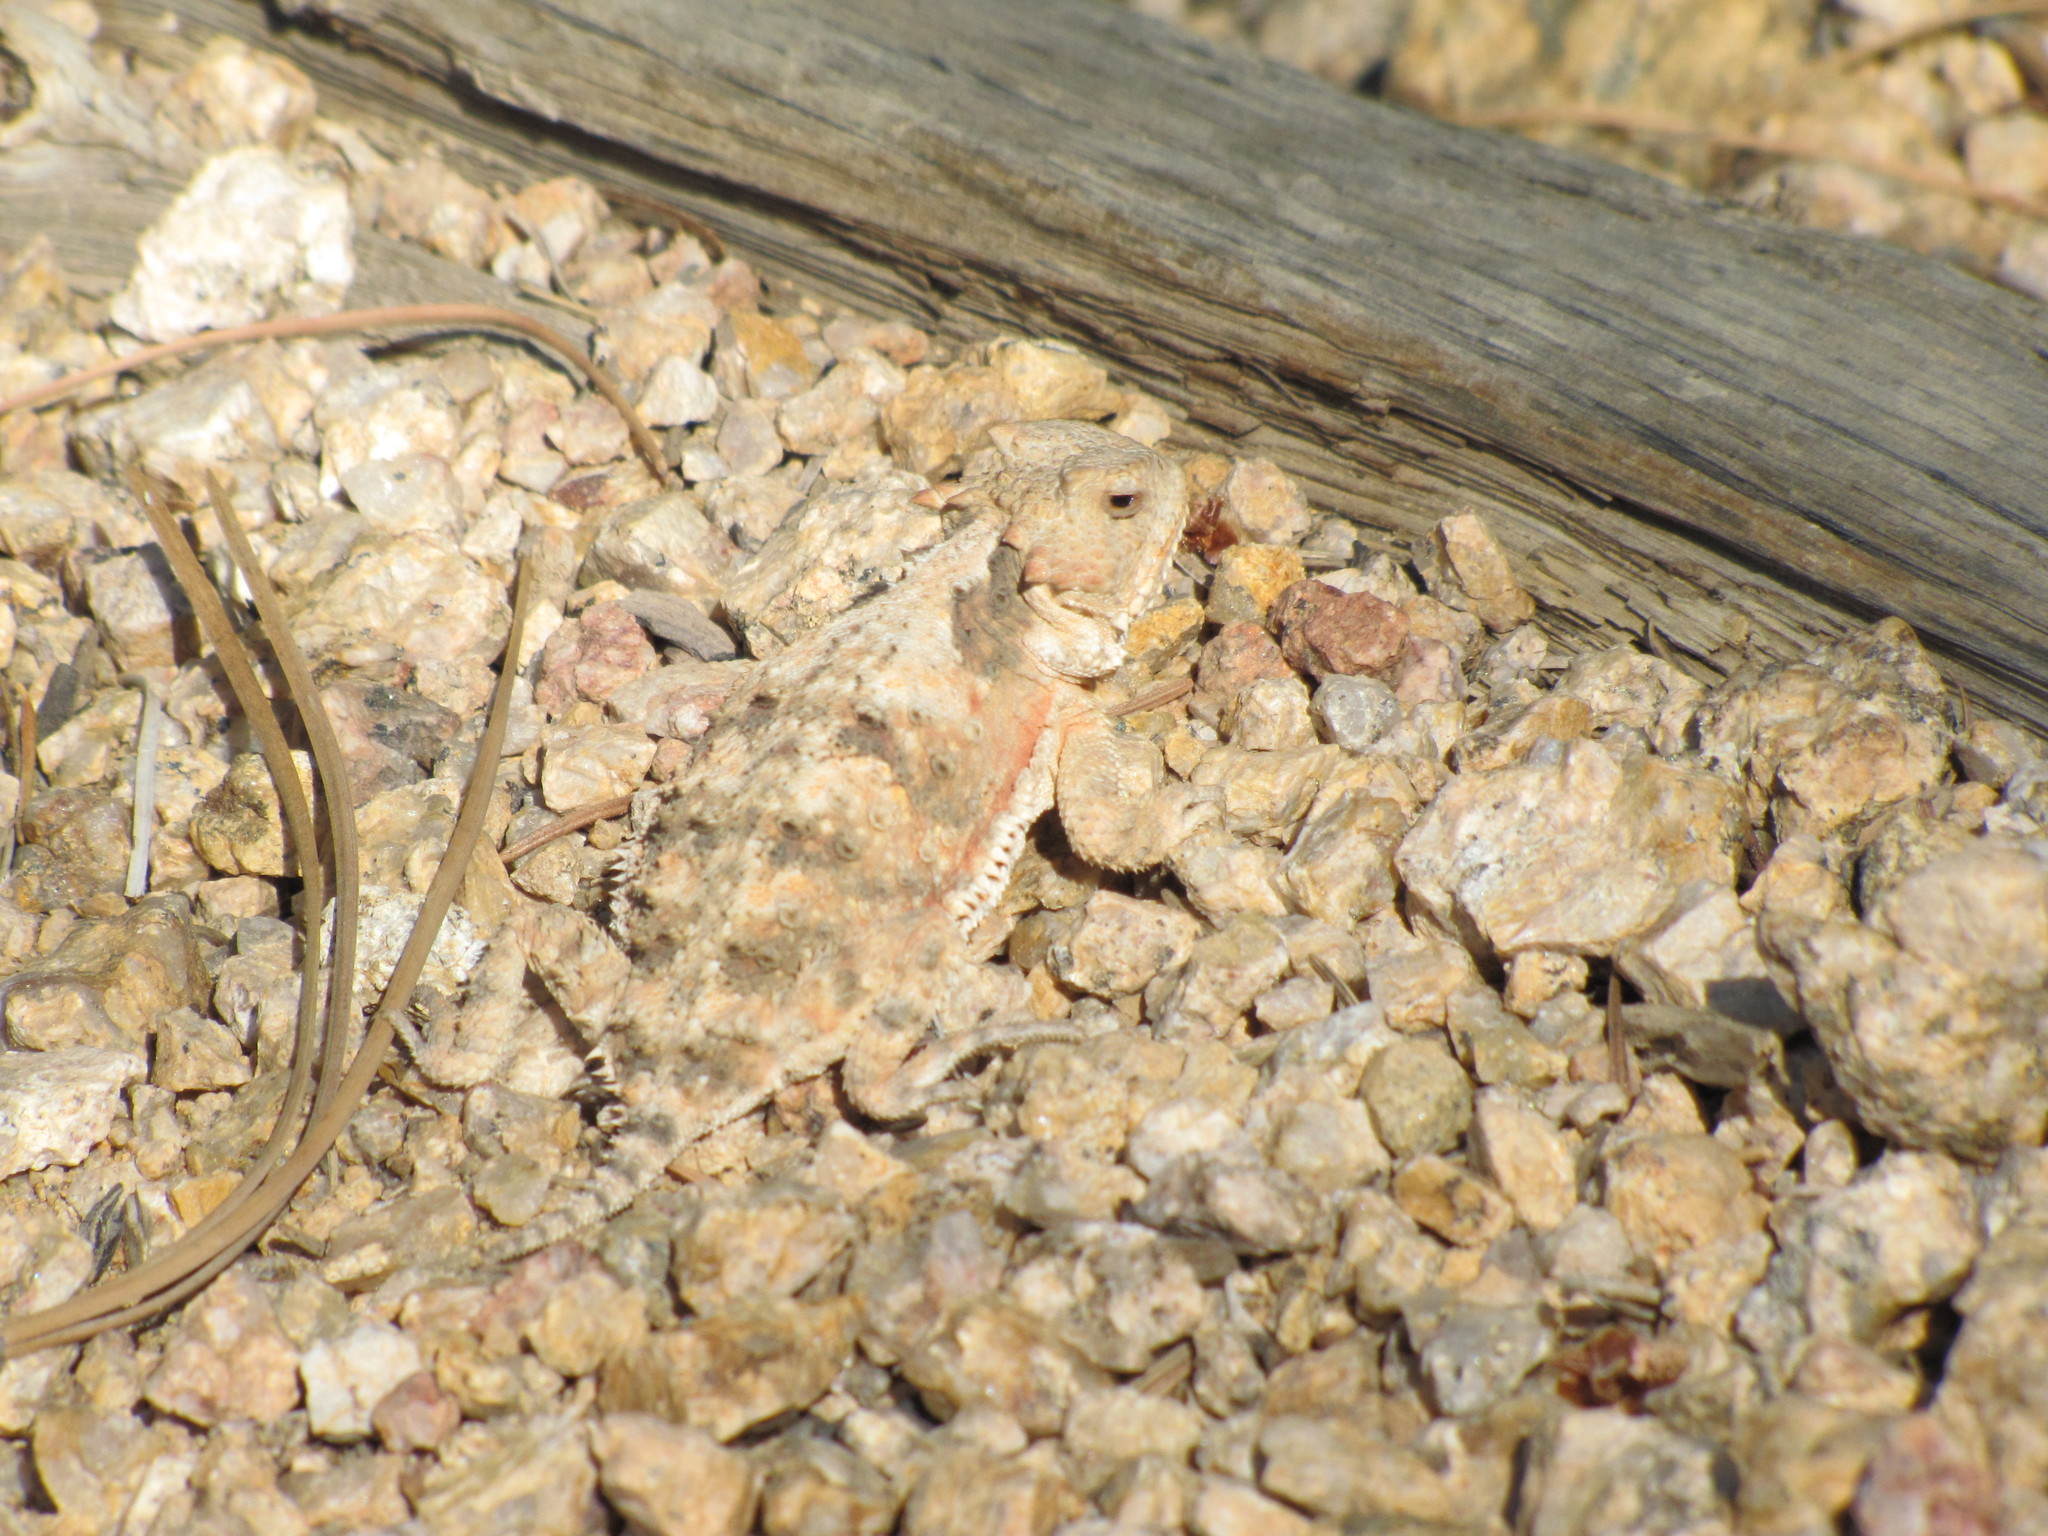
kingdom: Animalia
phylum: Chordata
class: Squamata
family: Phrynosomatidae
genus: Phrynosoma
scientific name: Phrynosoma hernandesi
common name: Greater short-horned lizard
